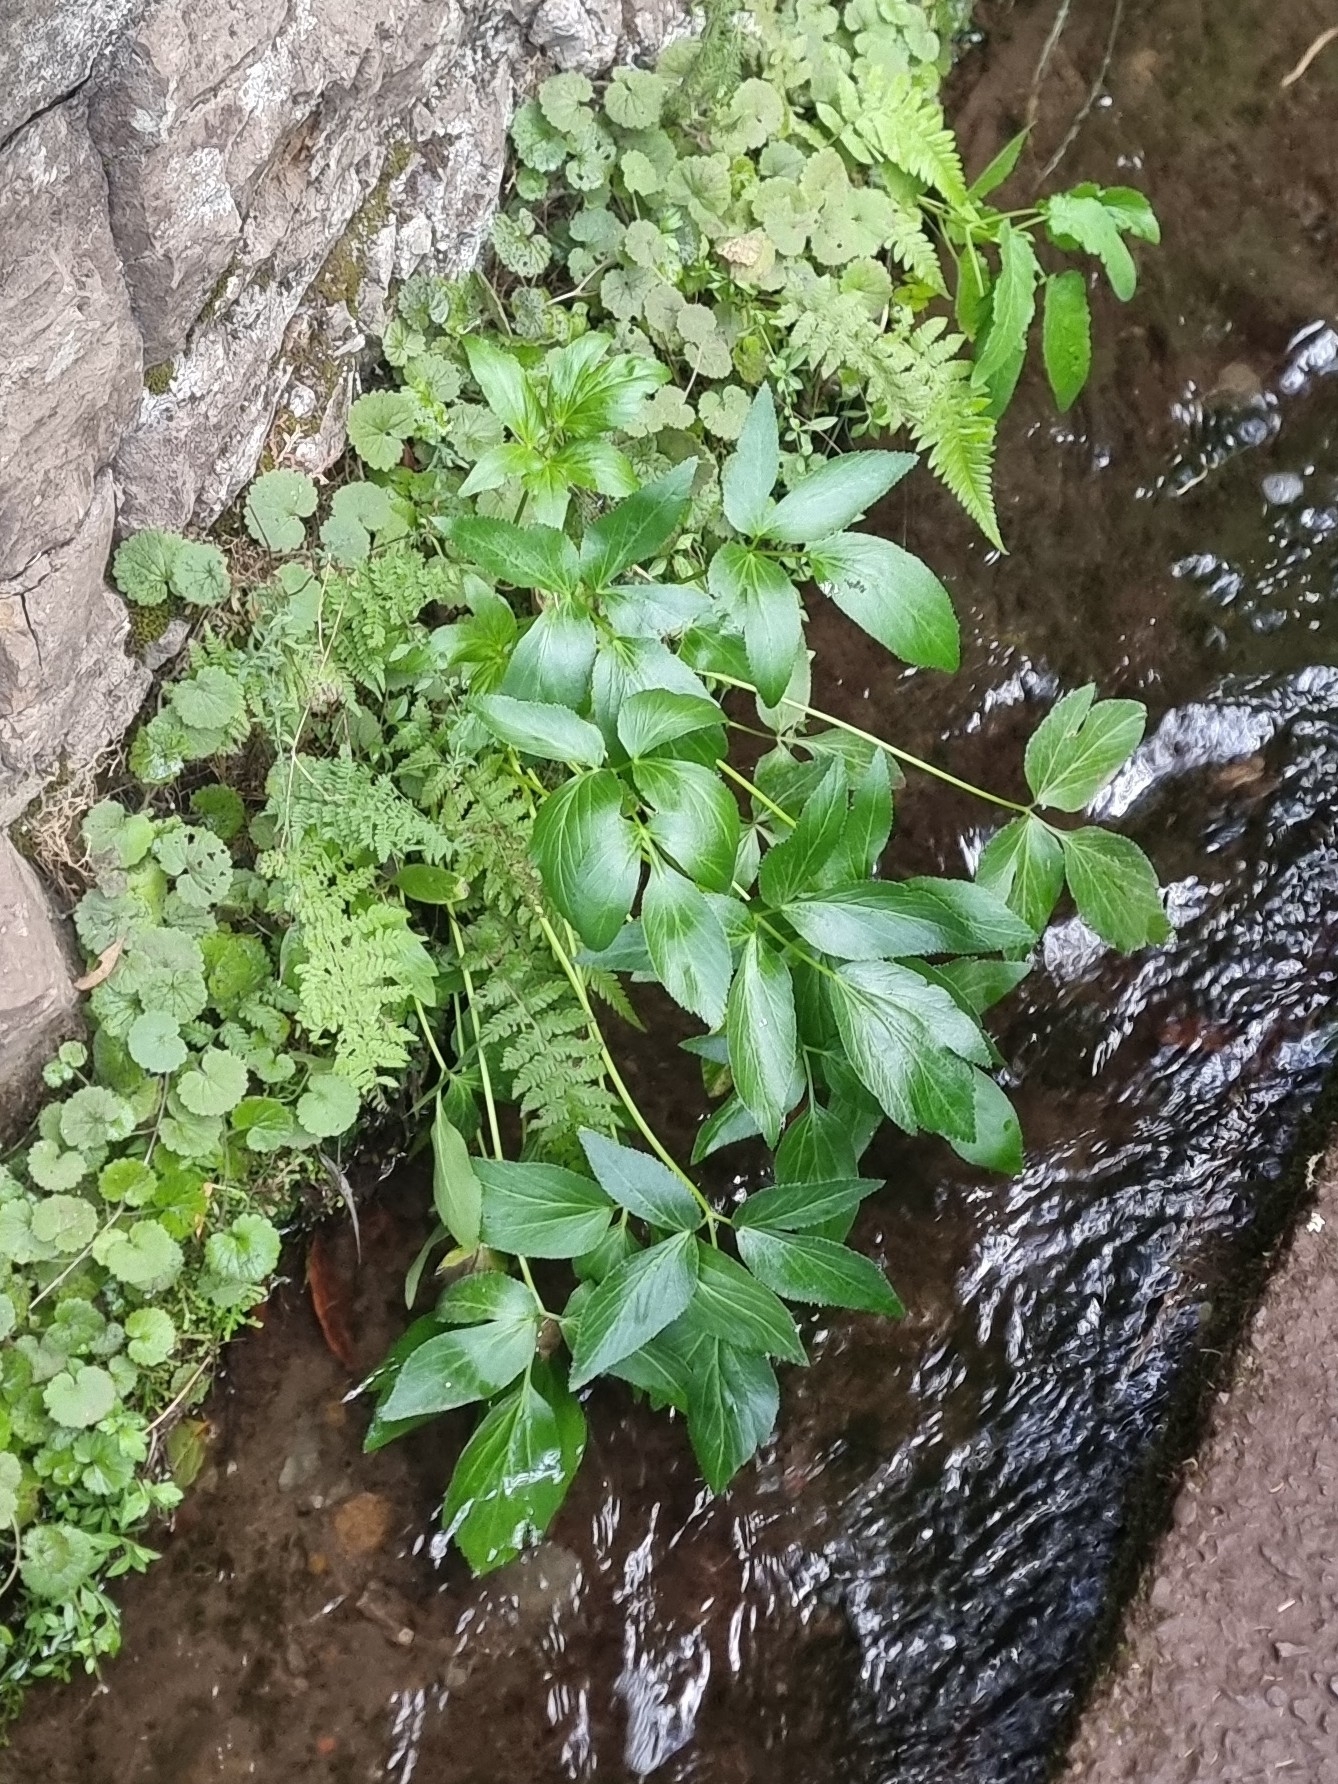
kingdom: Plantae
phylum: Tracheophyta
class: Magnoliopsida
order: Apiales
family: Apiaceae
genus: Imperatoria
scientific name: Imperatoria lowei
